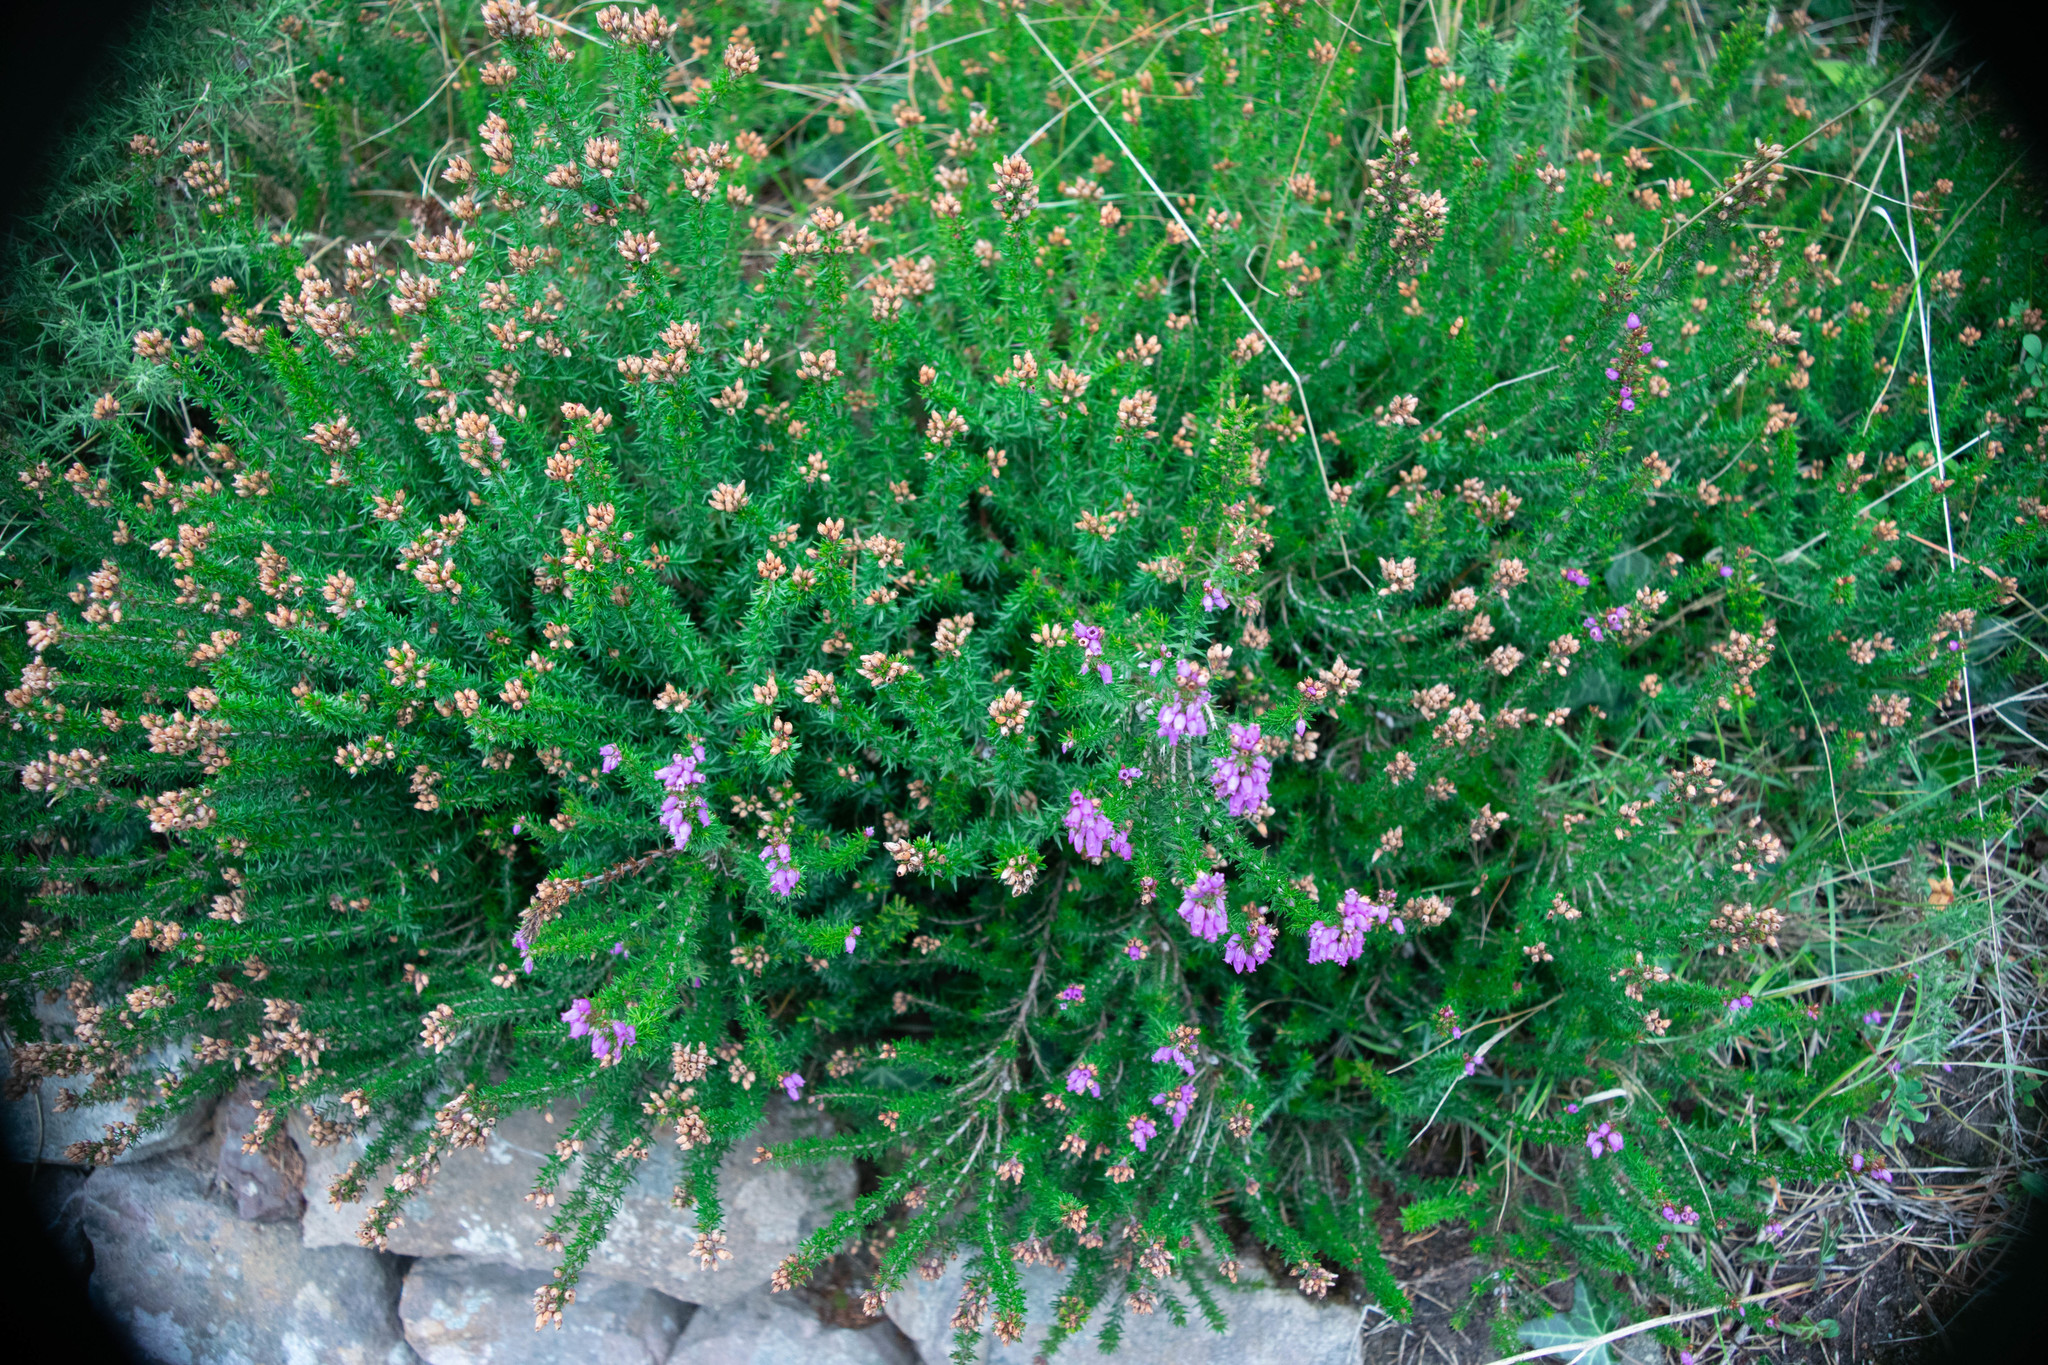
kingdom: Plantae
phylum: Tracheophyta
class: Magnoliopsida
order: Ericales
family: Ericaceae
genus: Erica
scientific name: Erica cinerea
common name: Bell heather
